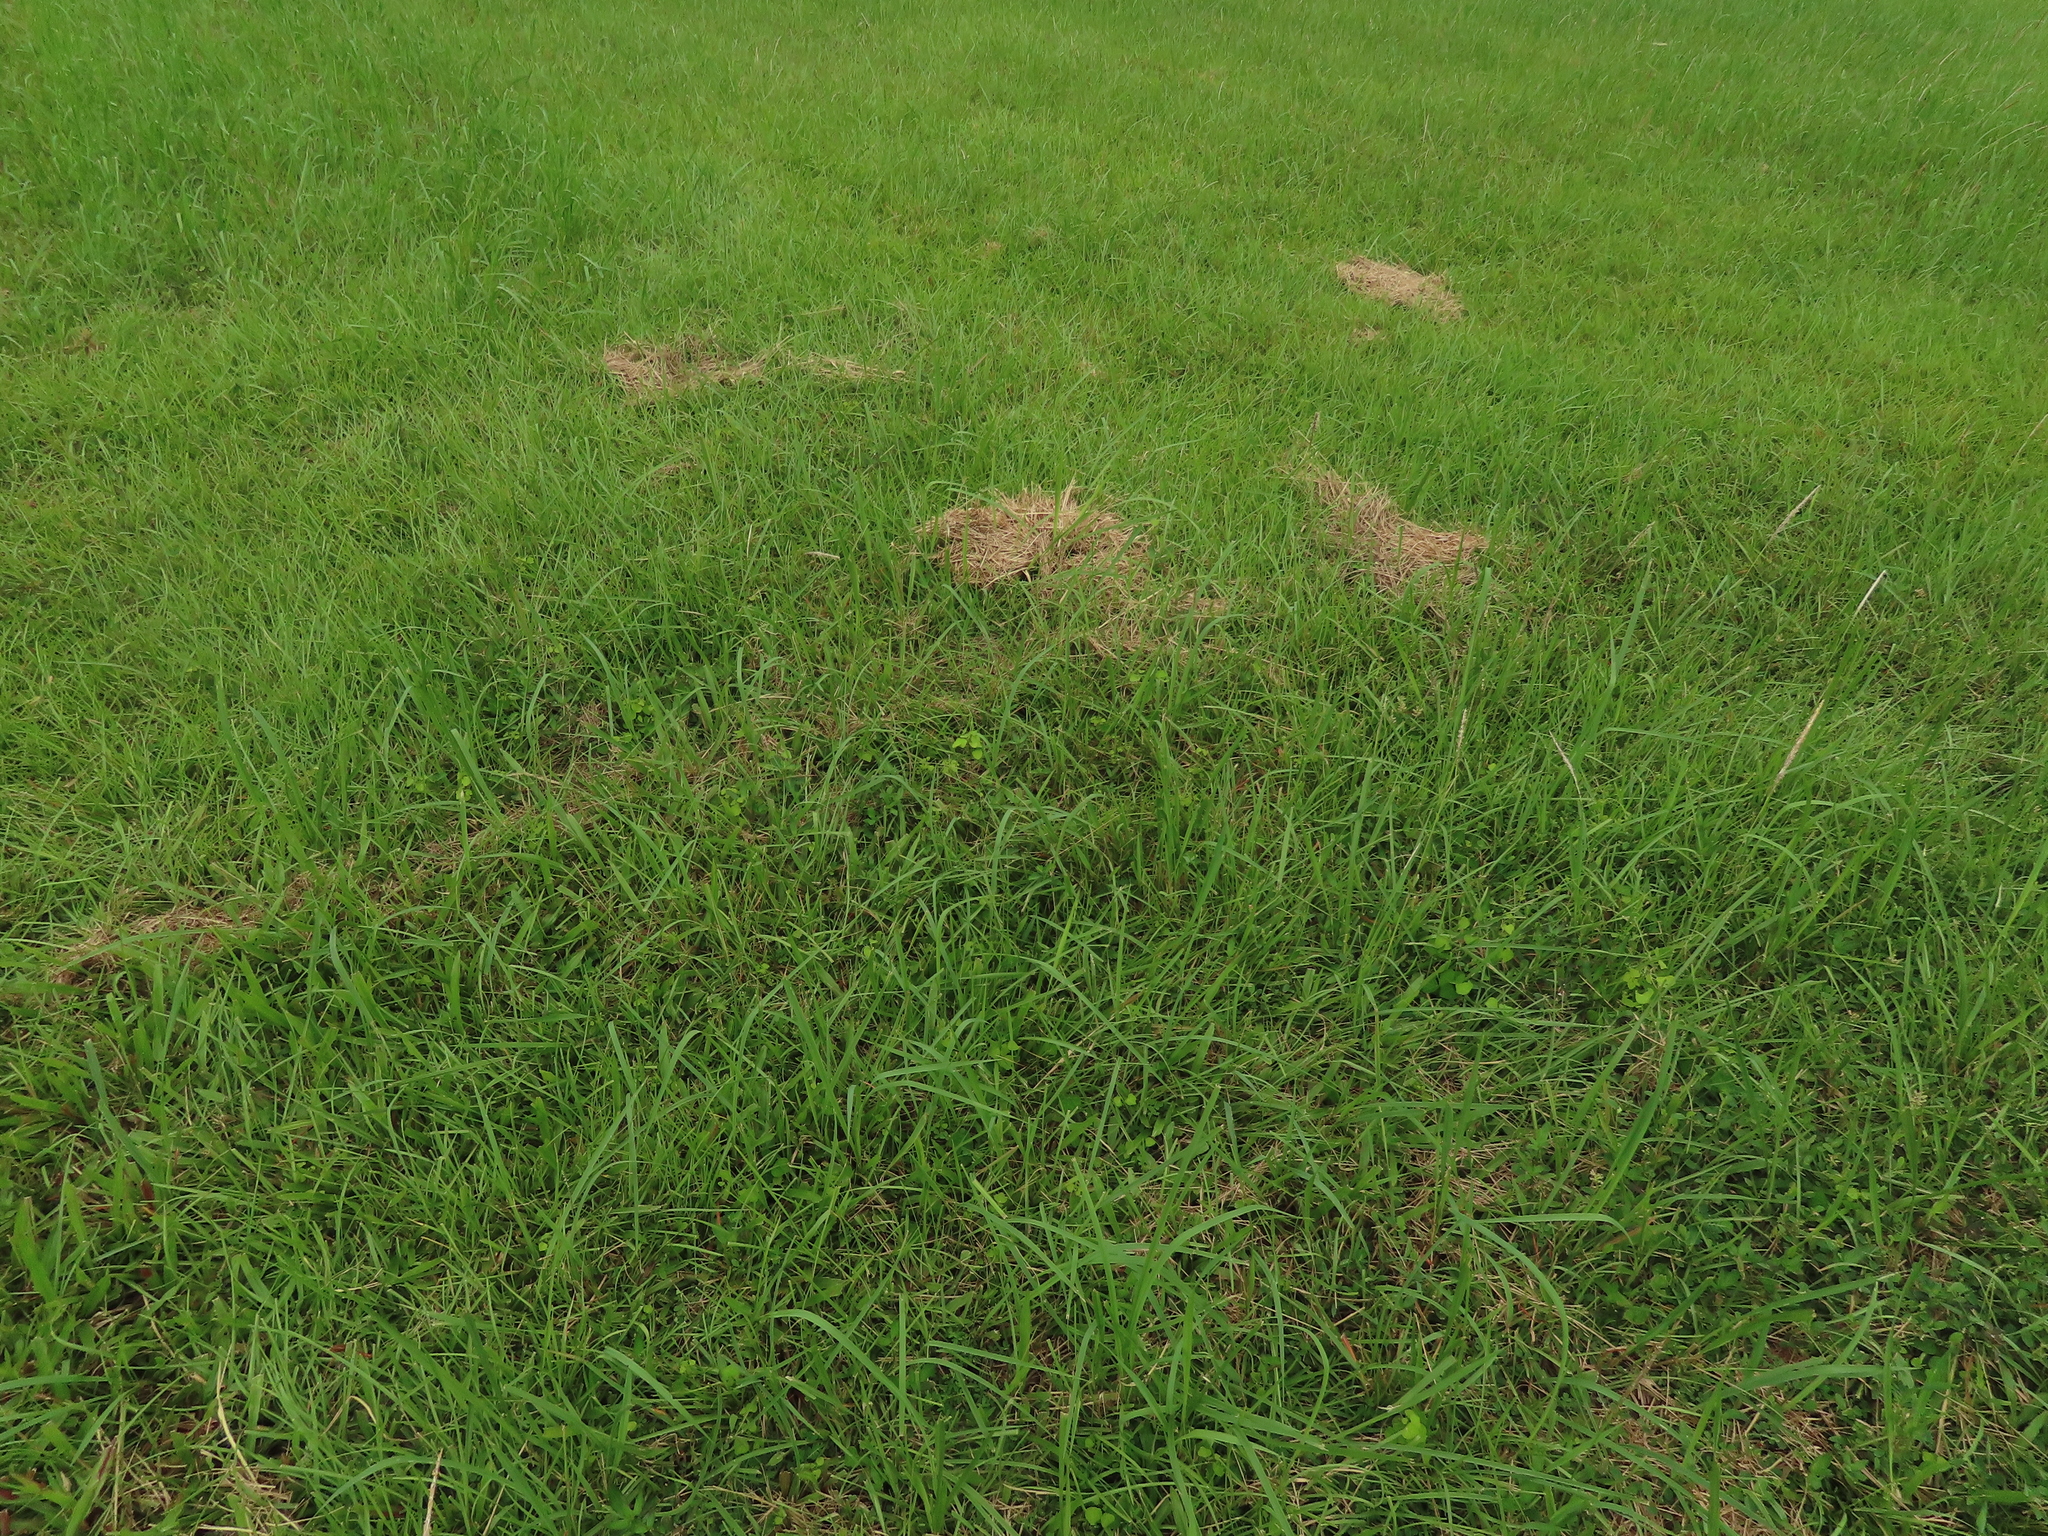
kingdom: Plantae
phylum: Tracheophyta
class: Magnoliopsida
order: Ranunculales
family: Menispermaceae
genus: Stephania
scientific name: Stephania tetrandra
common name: Stephania-root
